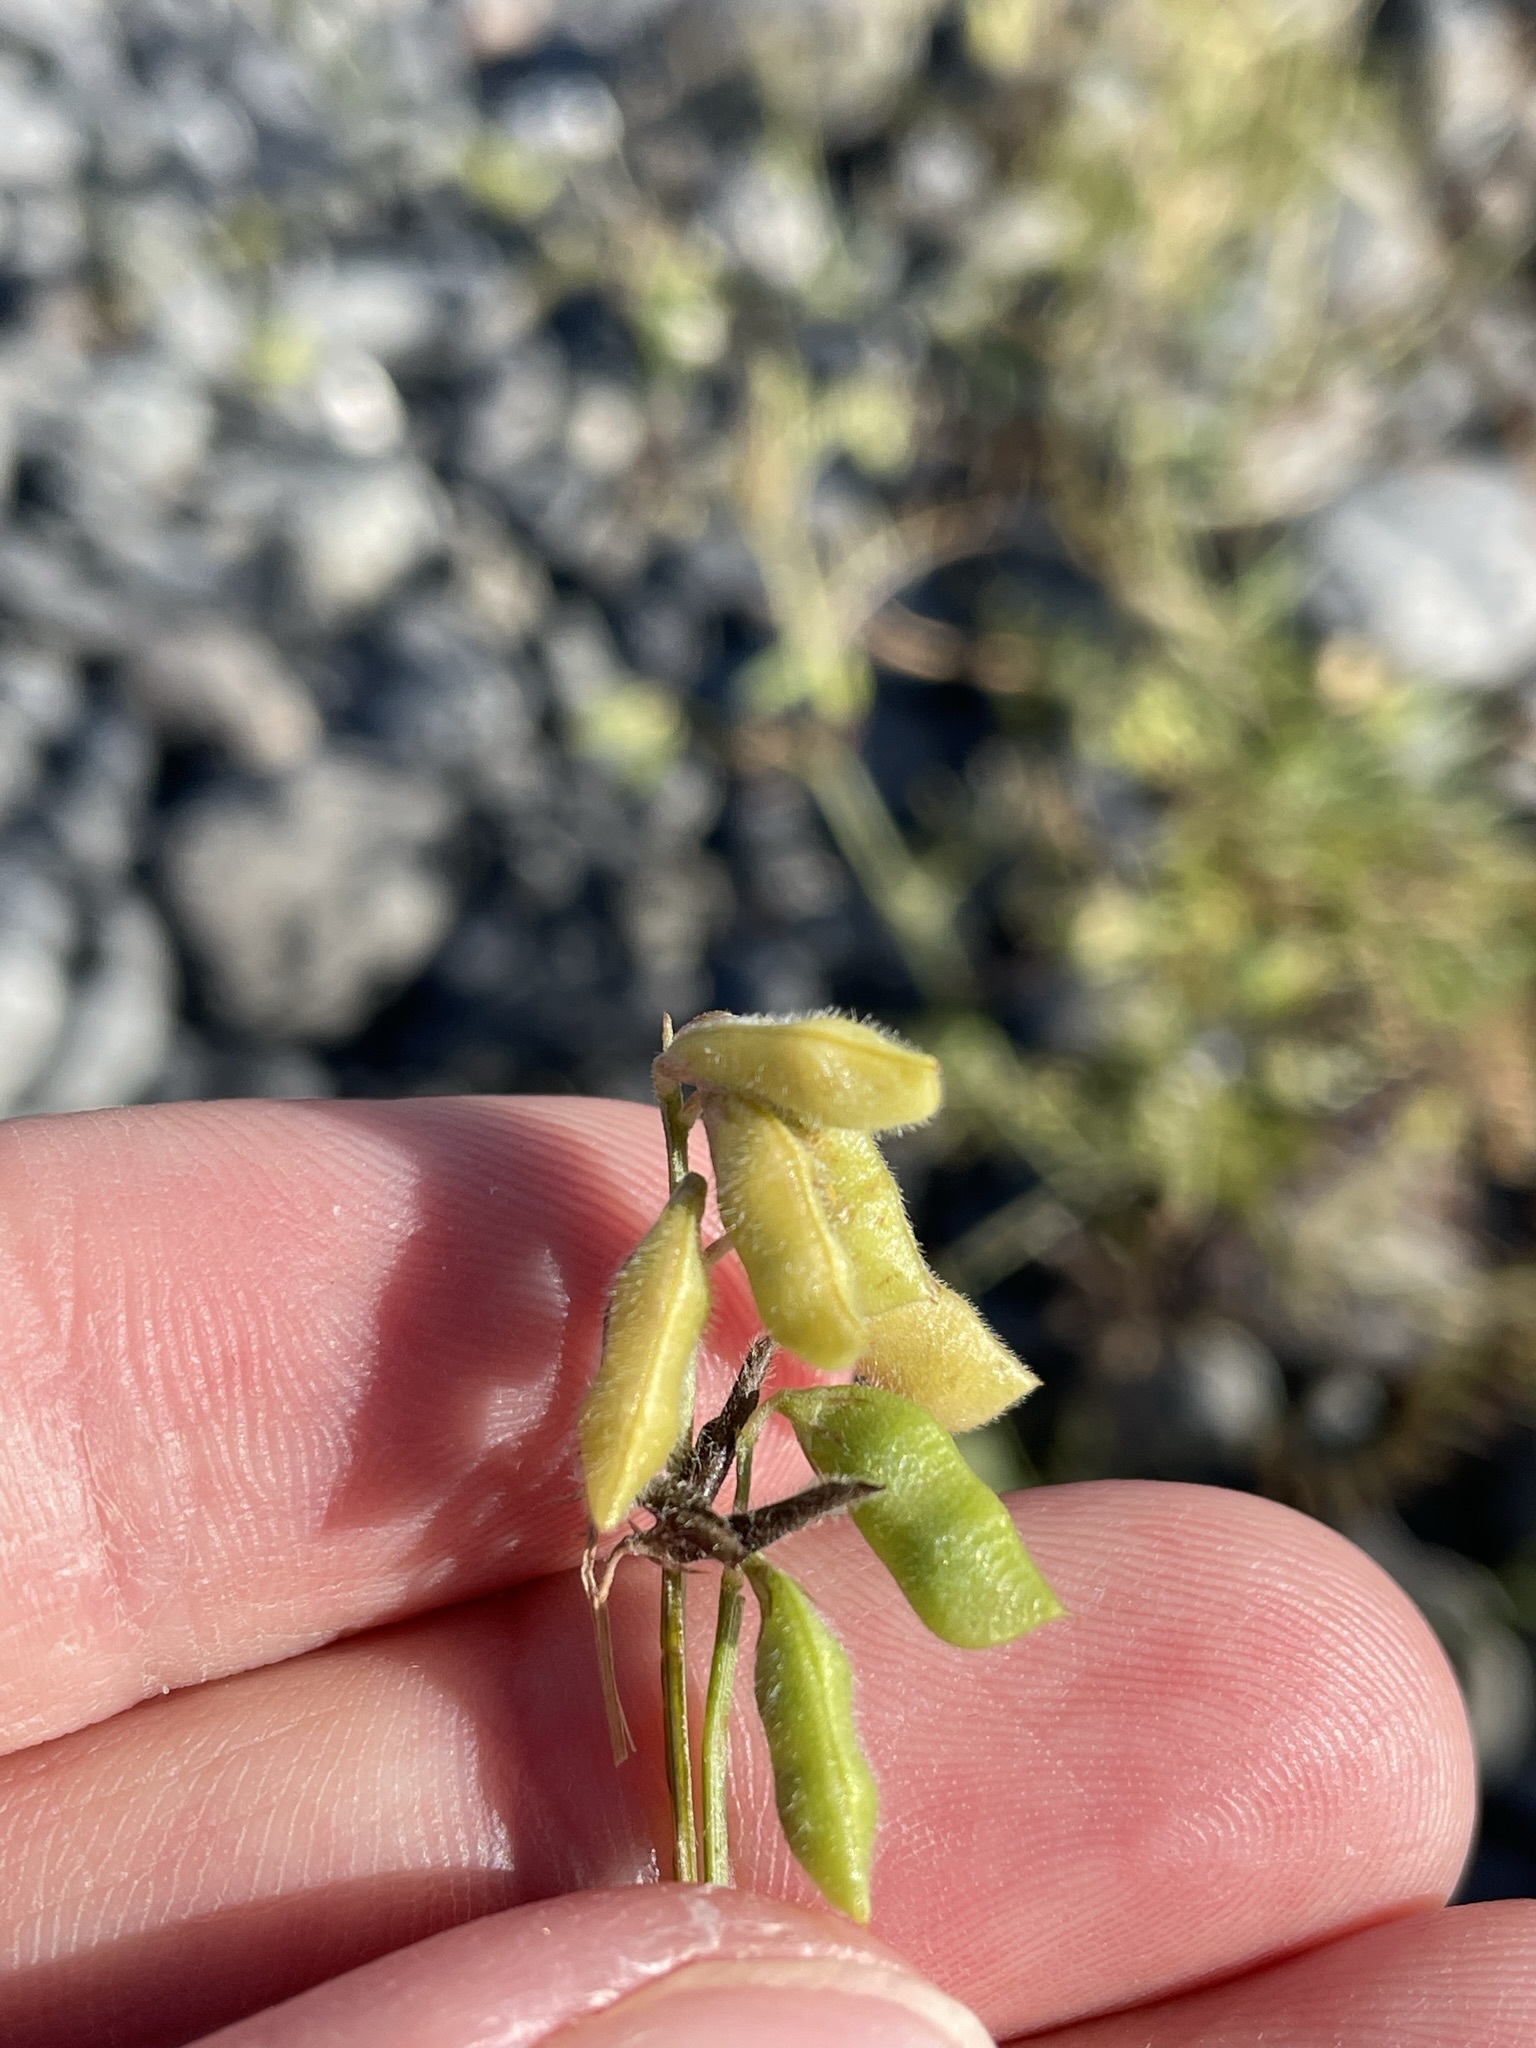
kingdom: Plantae
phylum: Tracheophyta
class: Magnoliopsida
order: Fabales
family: Fabaceae
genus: Vicia
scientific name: Vicia hirsuta
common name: Tiny vetch
